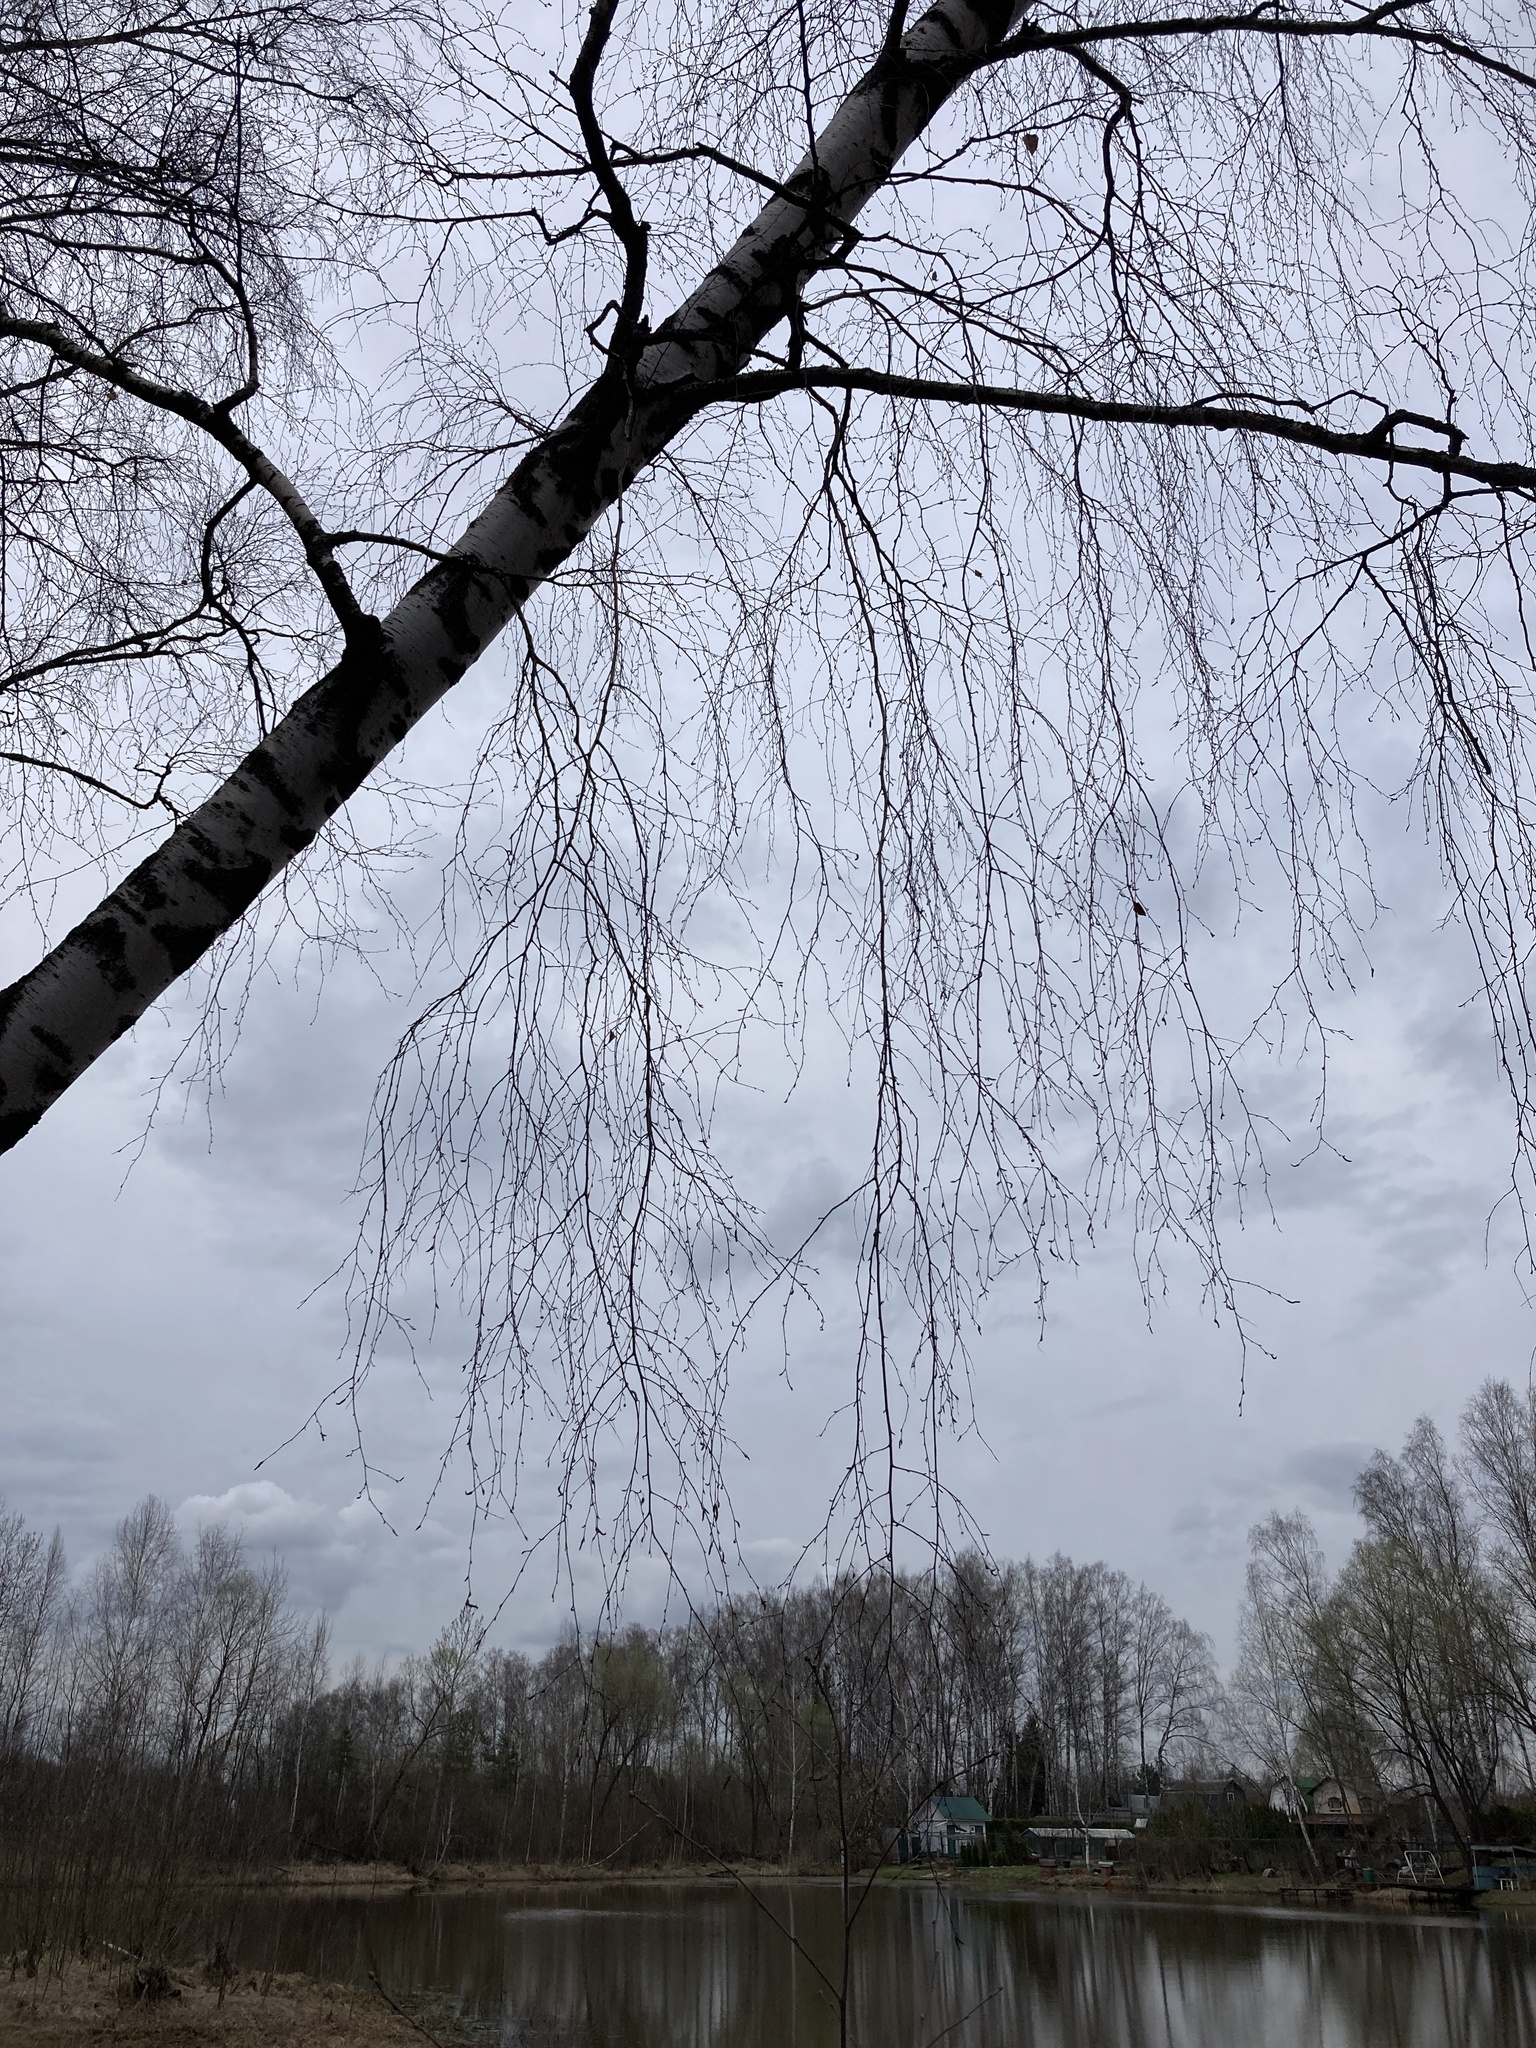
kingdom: Plantae
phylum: Tracheophyta
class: Magnoliopsida
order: Fagales
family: Betulaceae
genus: Betula
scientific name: Betula pendula
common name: Silver birch
